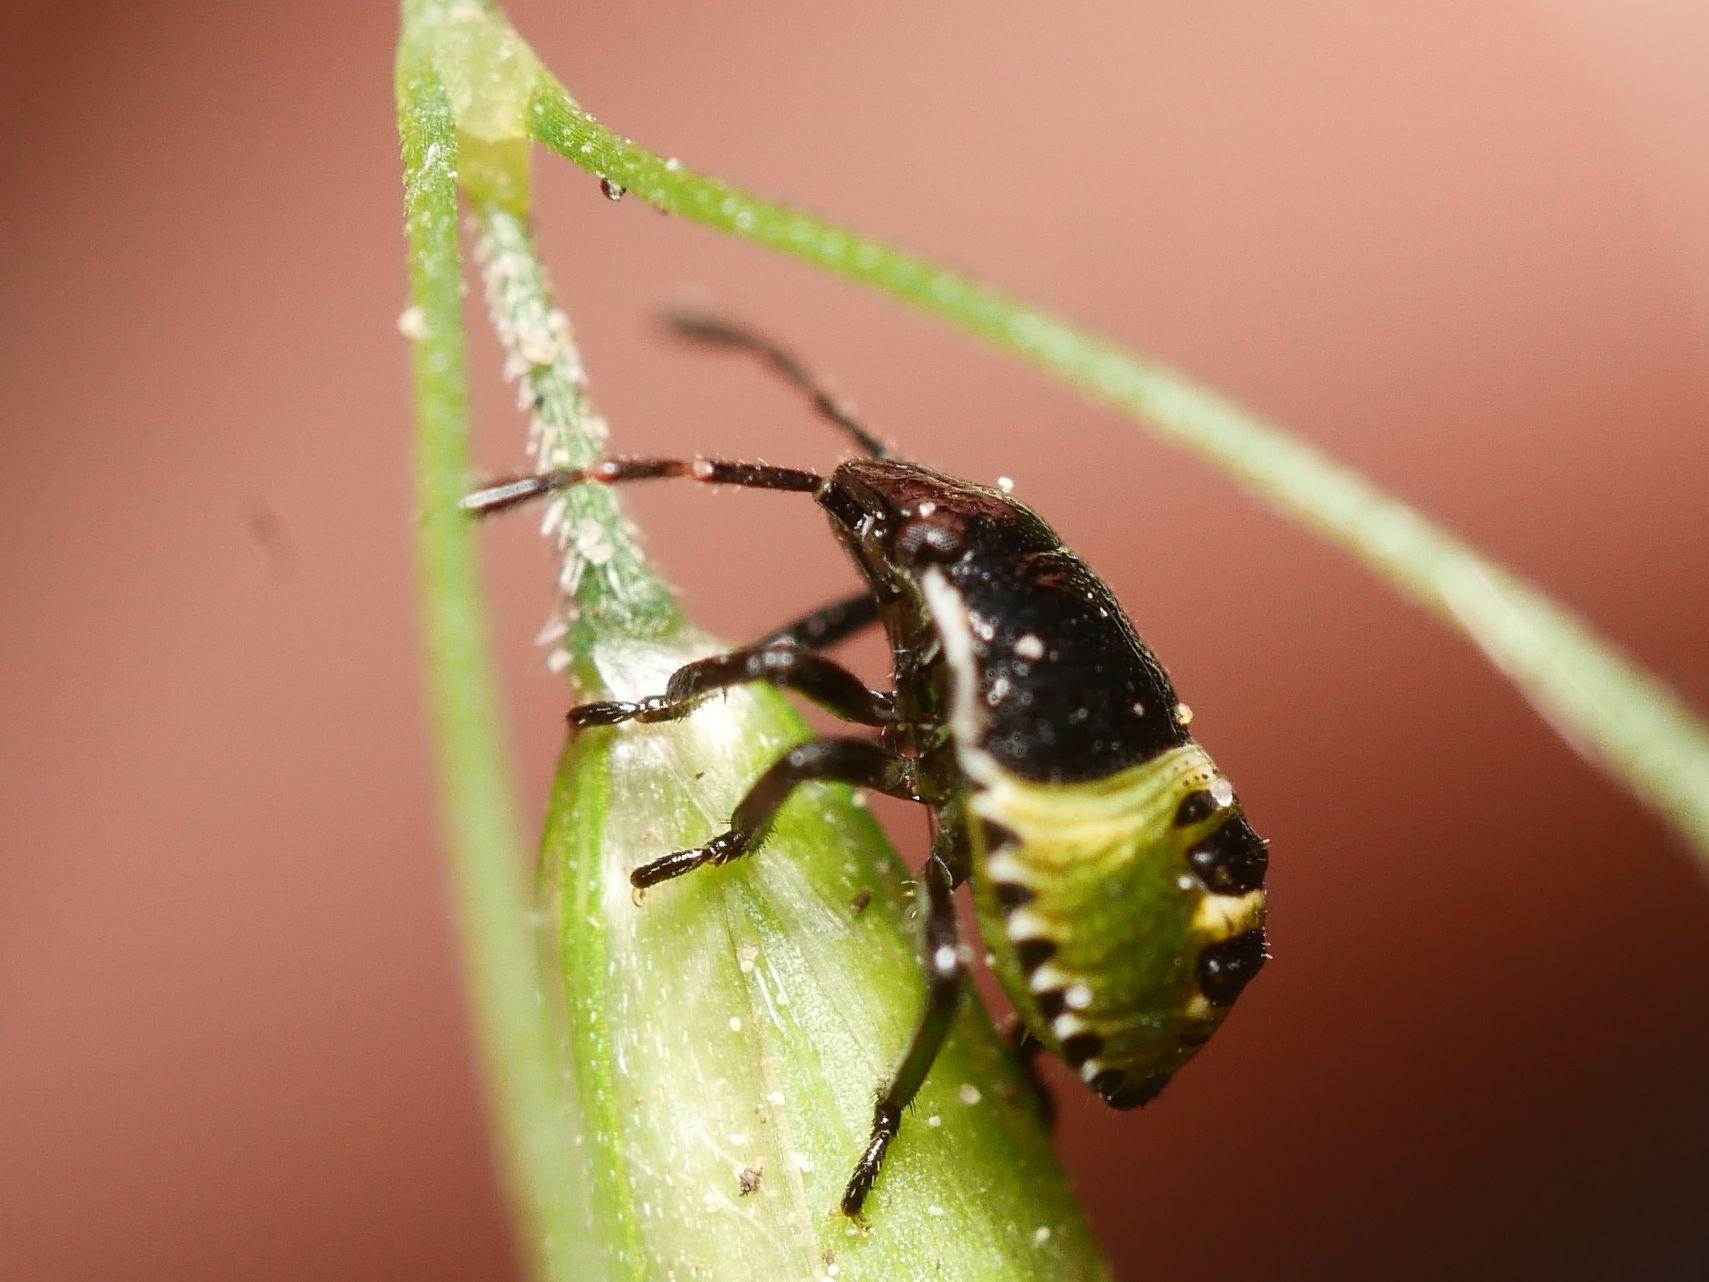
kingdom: Animalia
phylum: Arthropoda
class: Insecta
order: Hemiptera
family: Pentatomidae
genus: Palomena
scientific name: Palomena prasina
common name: Green shieldbug
